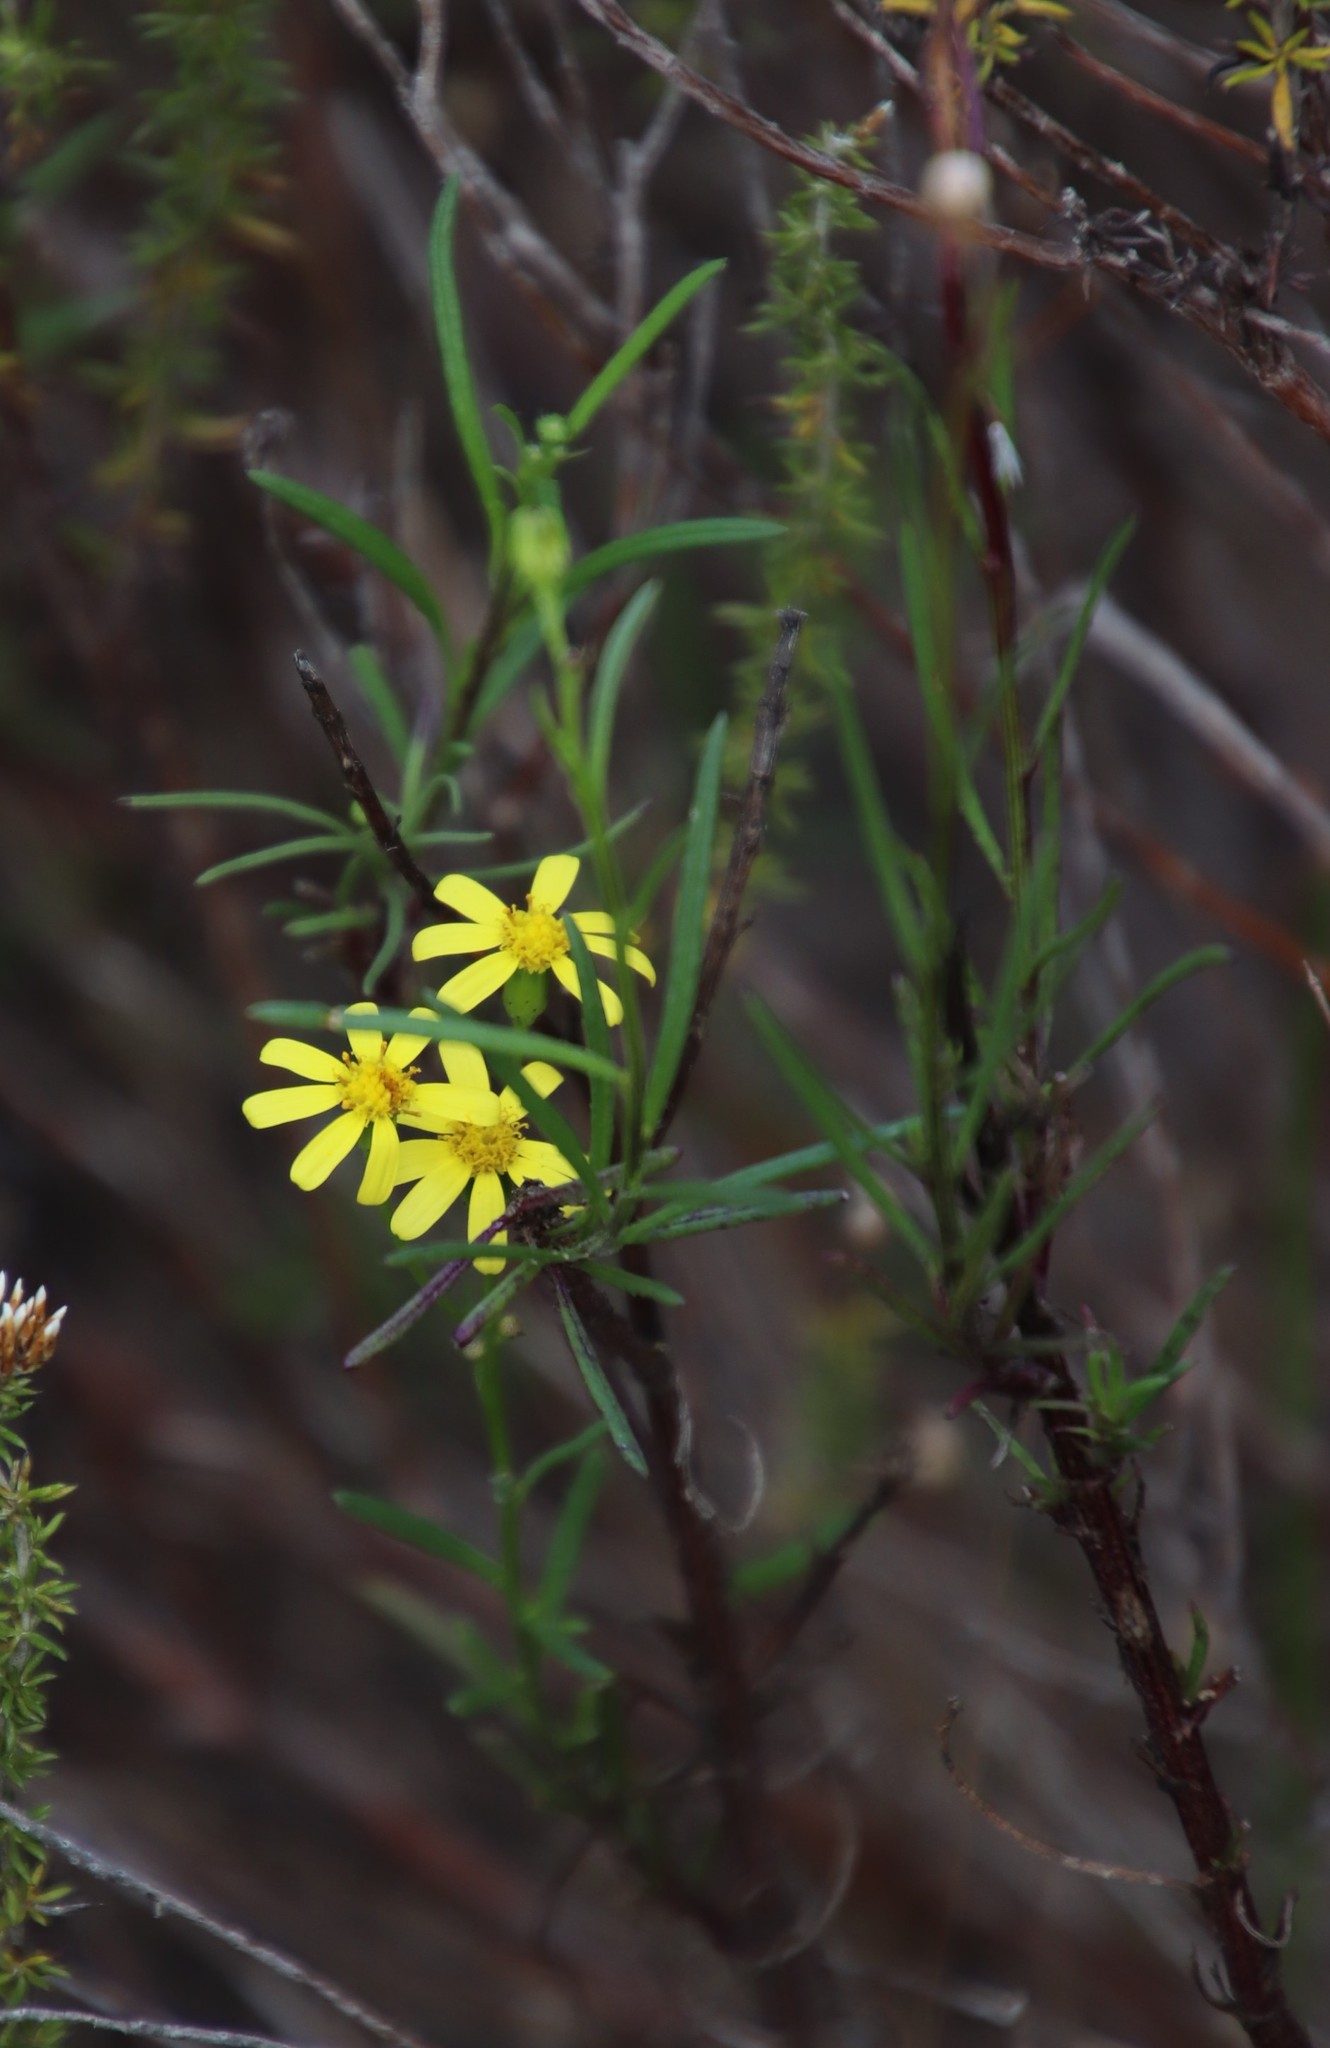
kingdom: Plantae
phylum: Tracheophyta
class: Magnoliopsida
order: Asterales
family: Asteraceae
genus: Senecio
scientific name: Senecio burchellii
